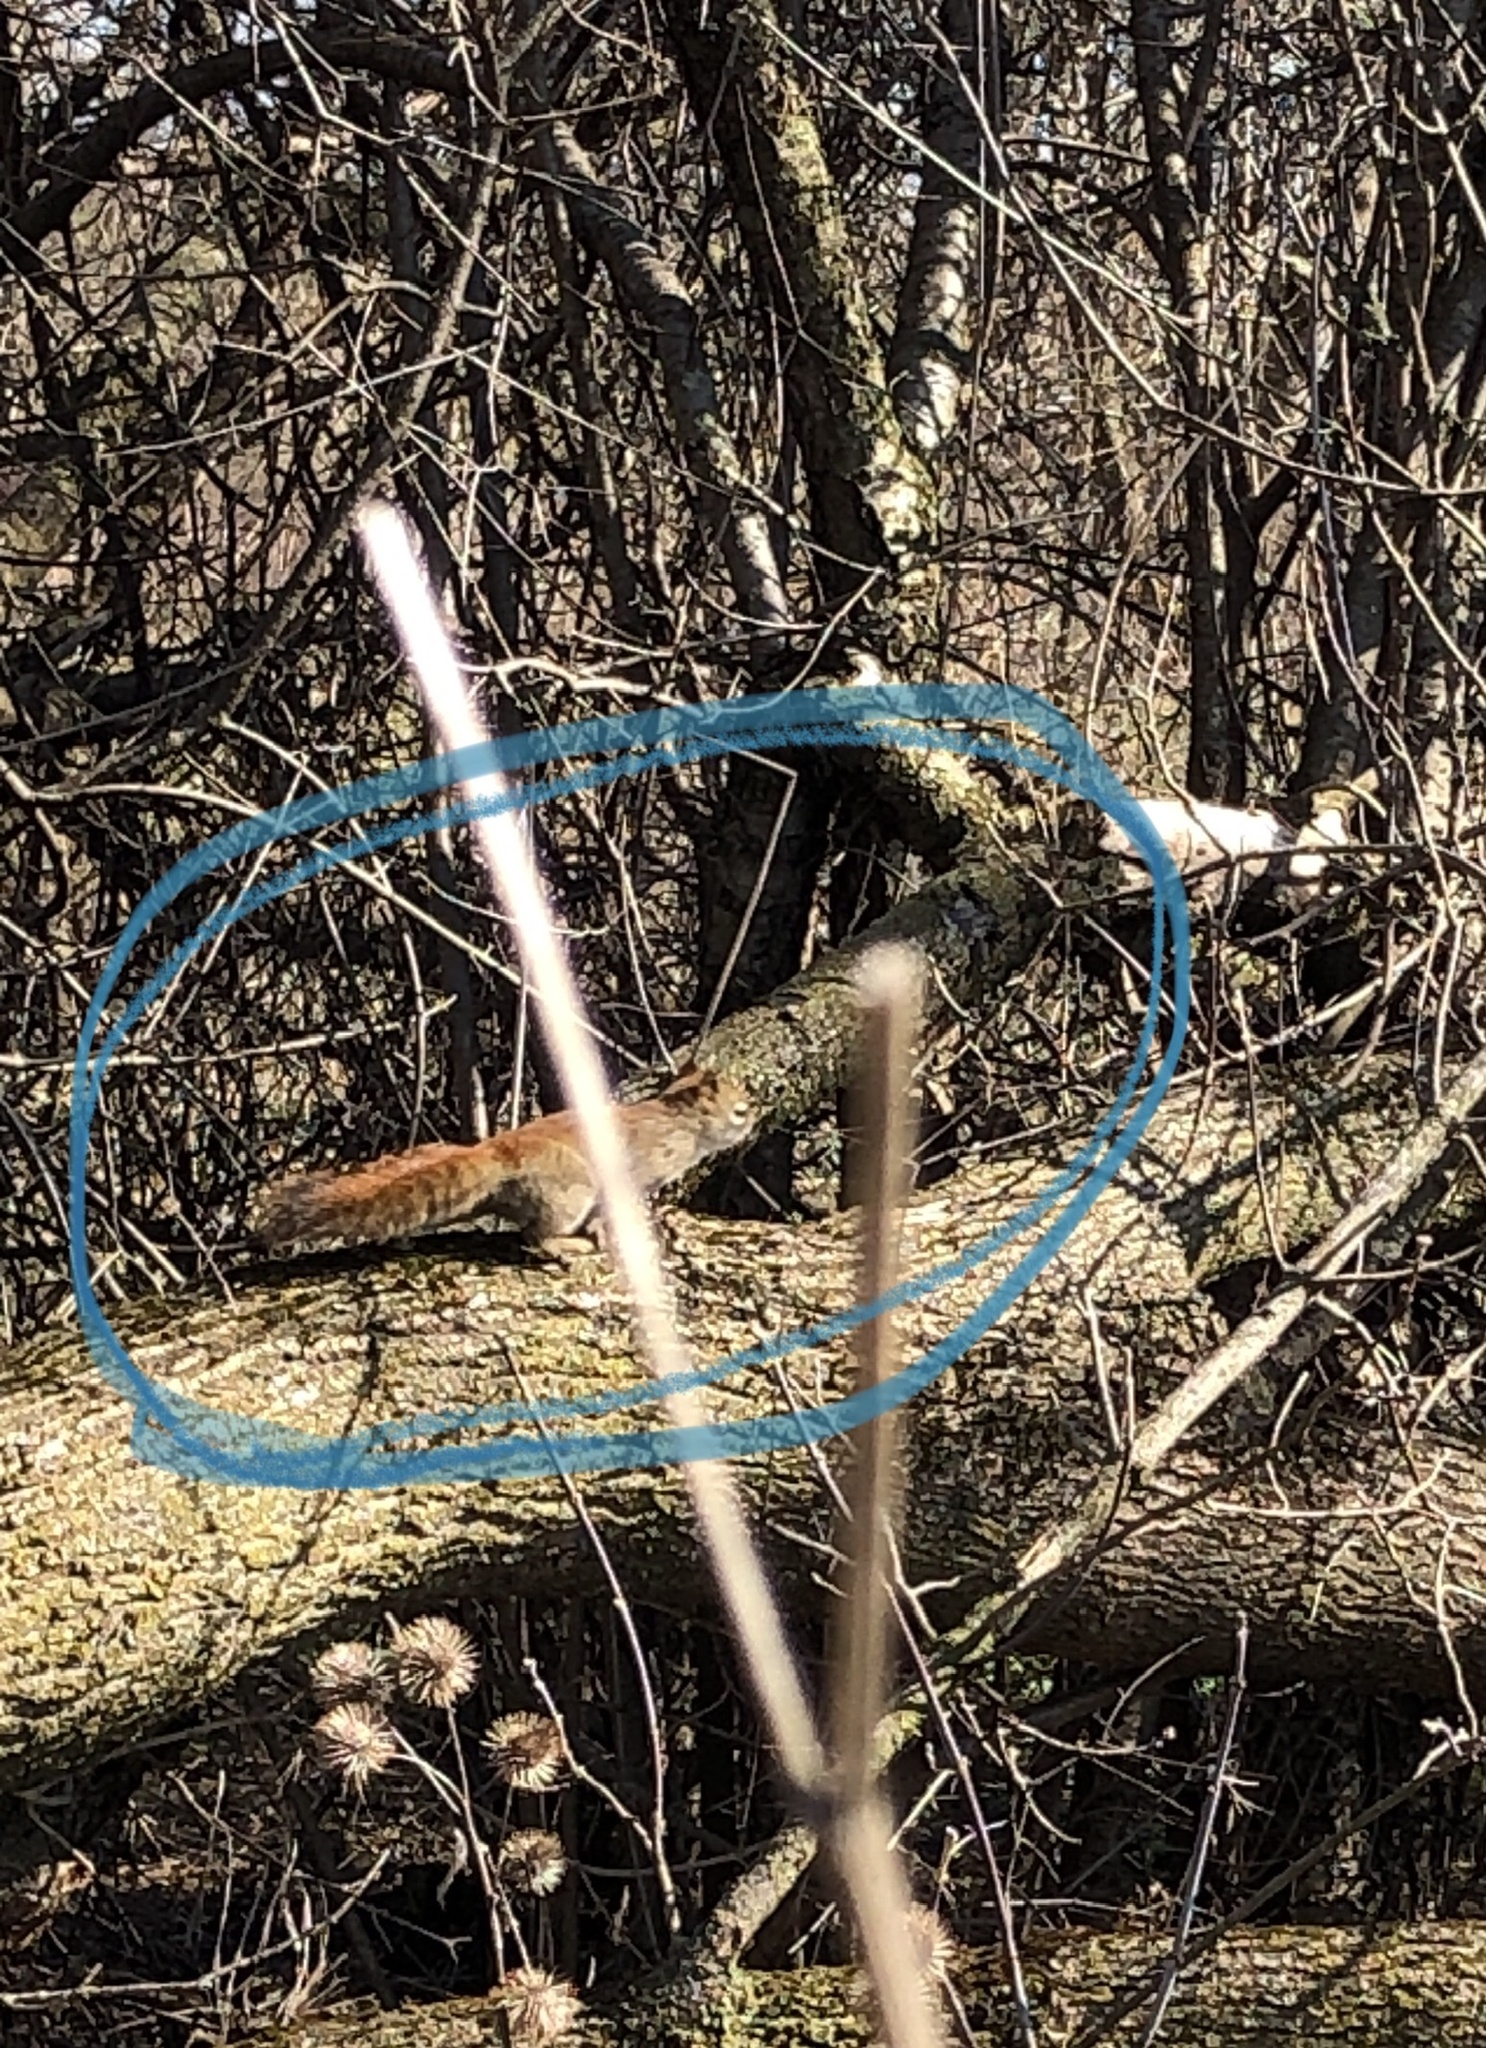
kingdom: Animalia
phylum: Chordata
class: Mammalia
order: Rodentia
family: Sciuridae
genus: Tamiasciurus
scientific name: Tamiasciurus hudsonicus
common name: Red squirrel
